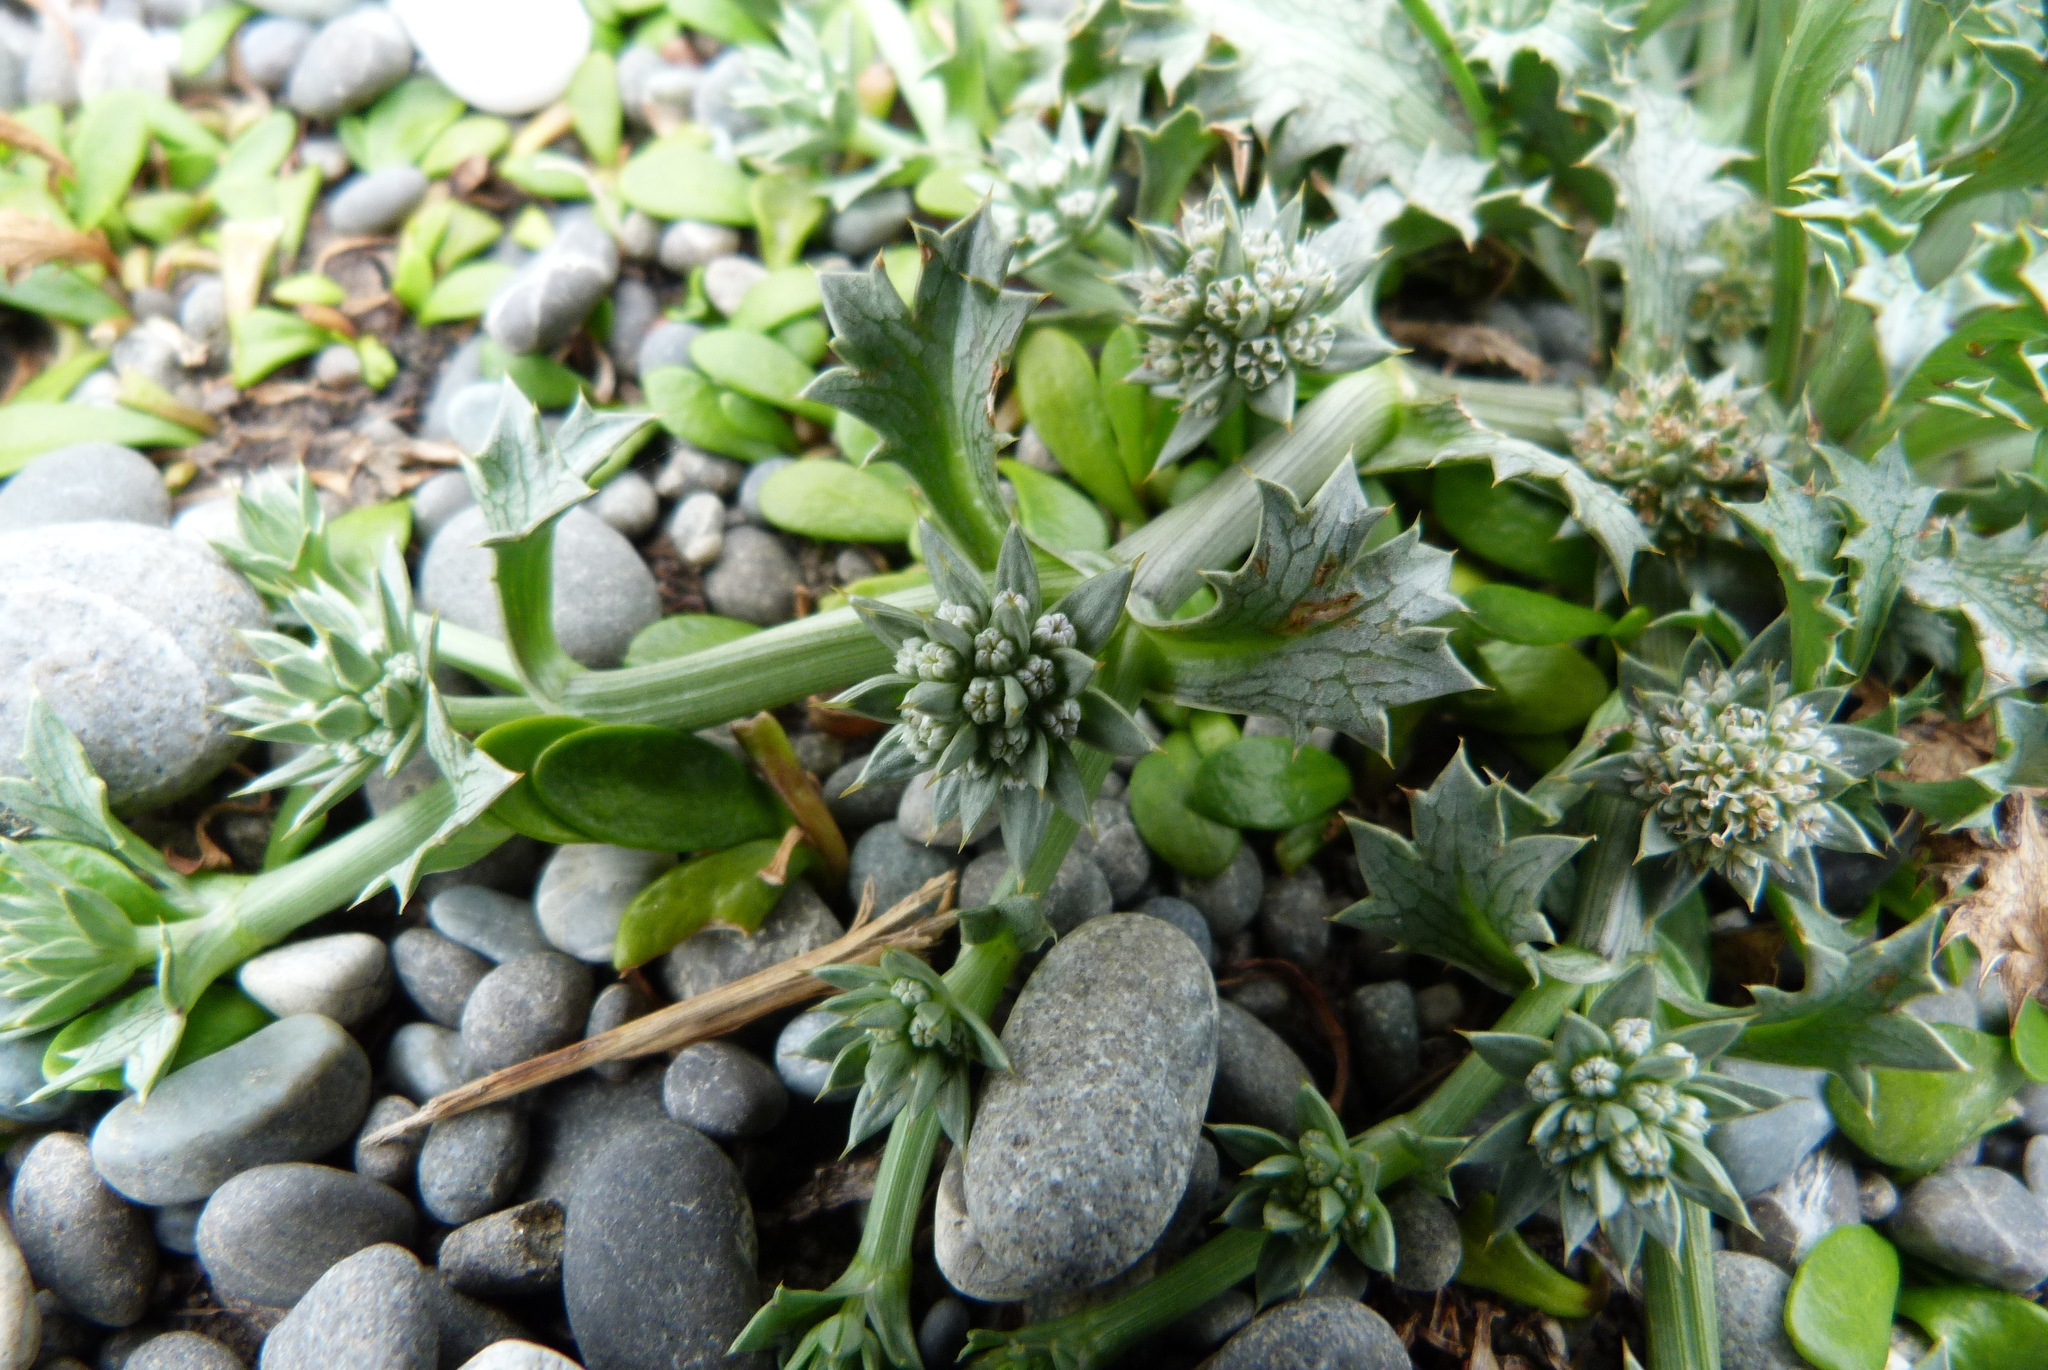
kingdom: Plantae
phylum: Tracheophyta
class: Magnoliopsida
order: Apiales
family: Apiaceae
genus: Eryngium
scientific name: Eryngium vesiculosum
